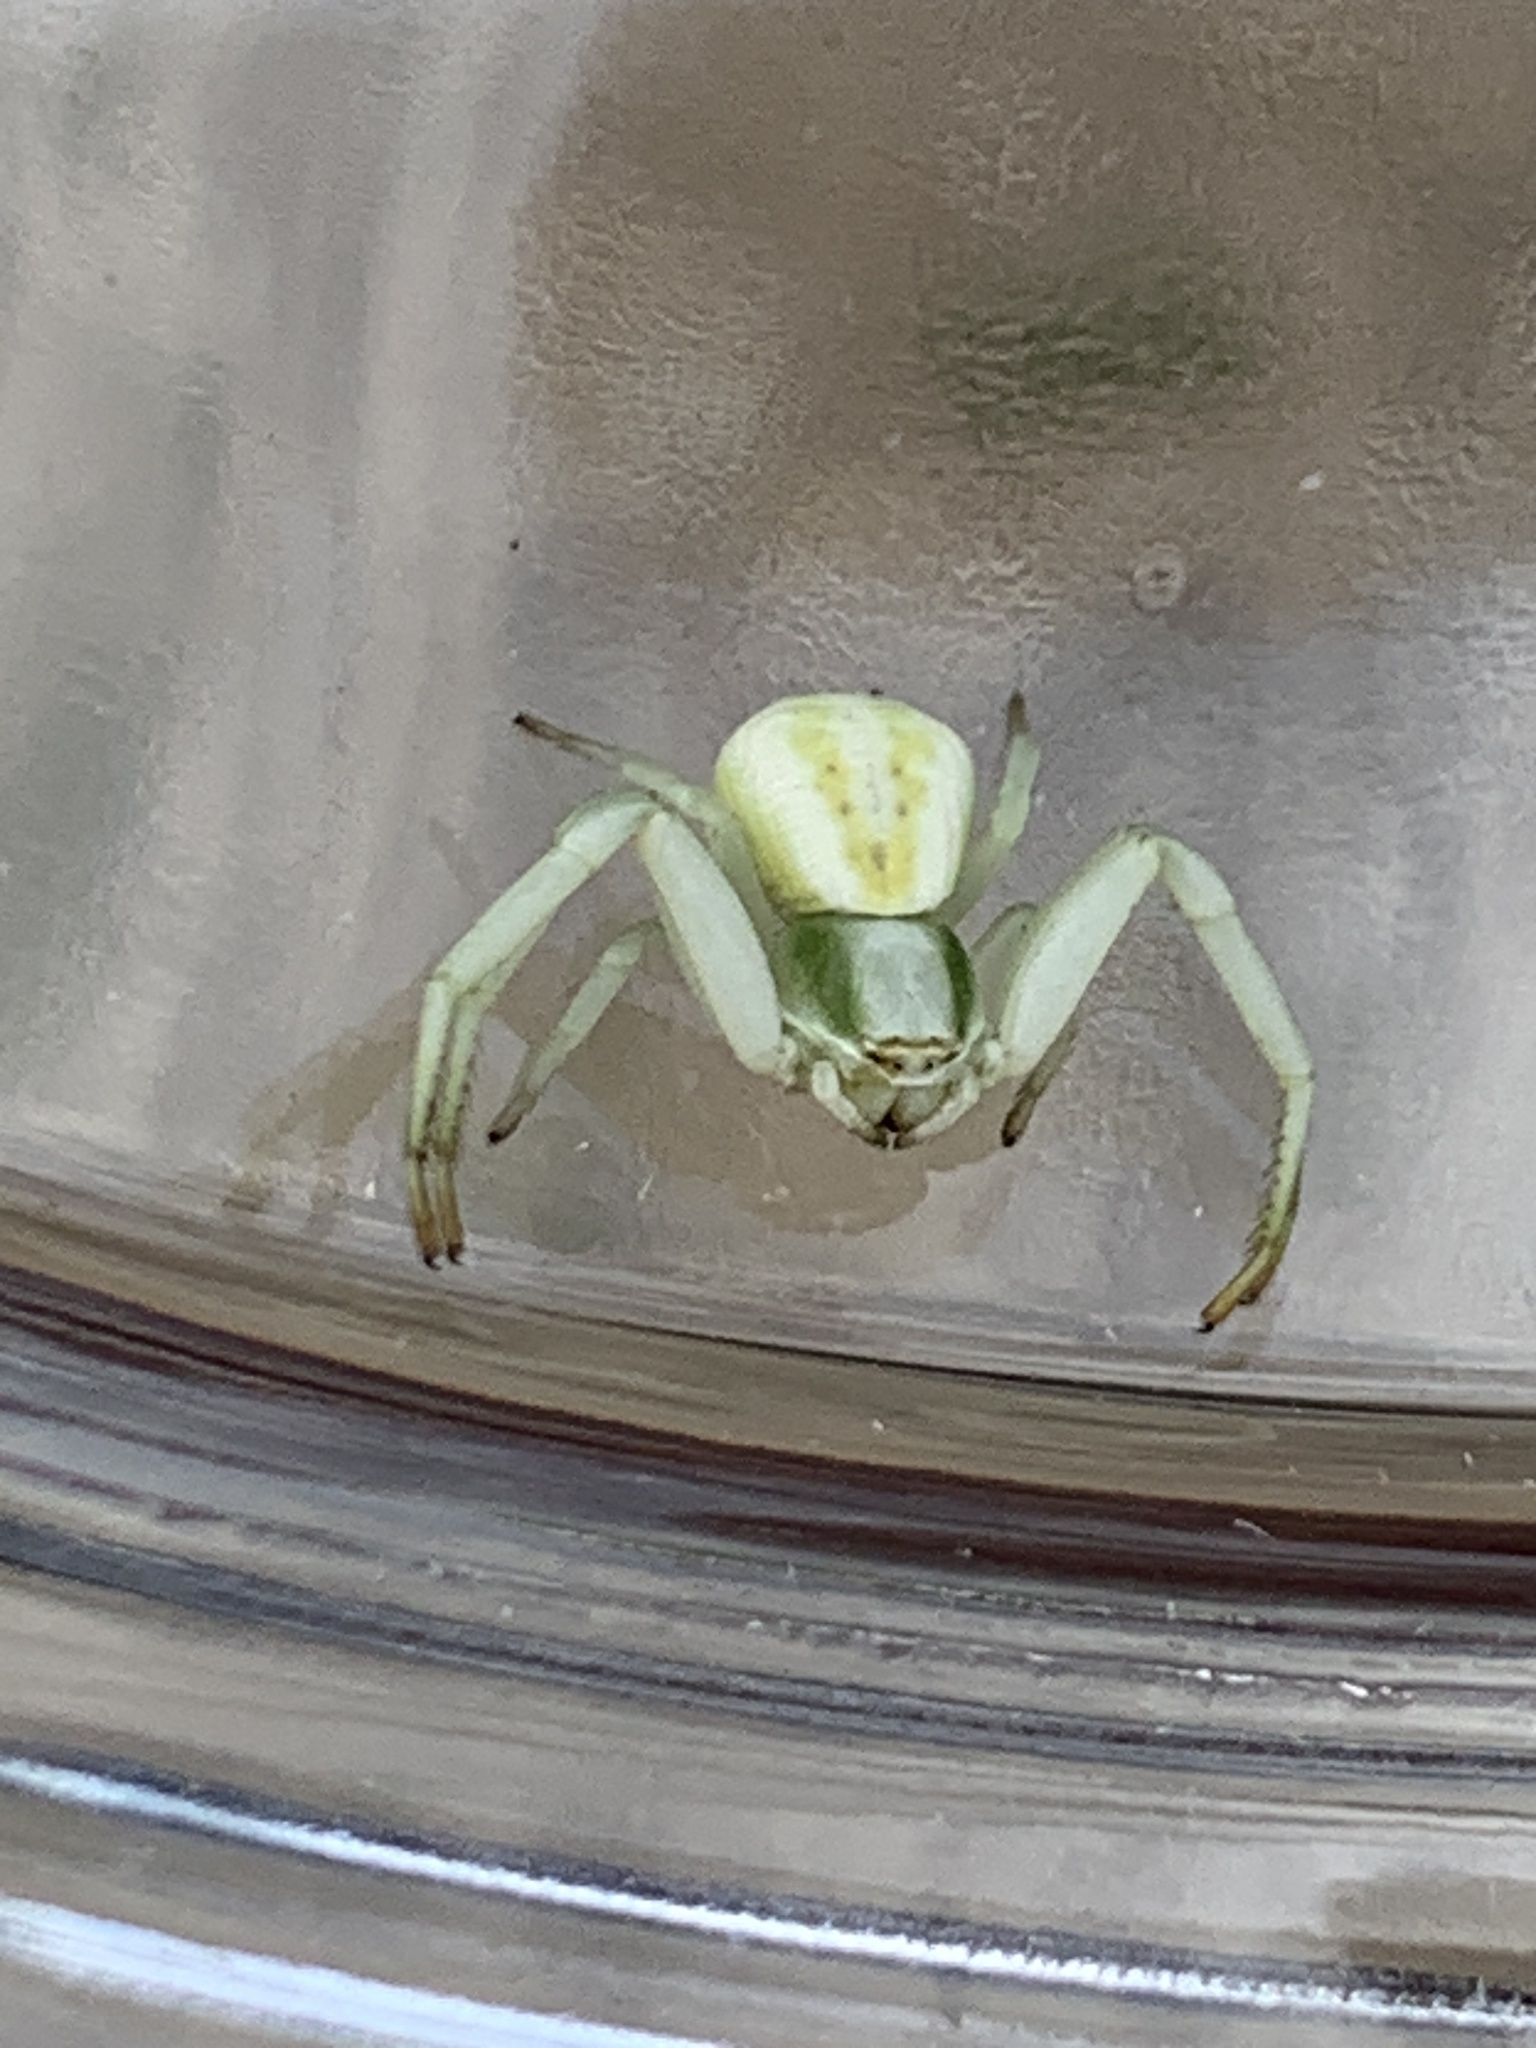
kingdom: Animalia
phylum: Arthropoda
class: Arachnida
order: Araneae
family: Thomisidae
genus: Misumenoides
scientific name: Misumenoides formosipes
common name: White-banded crab spider
